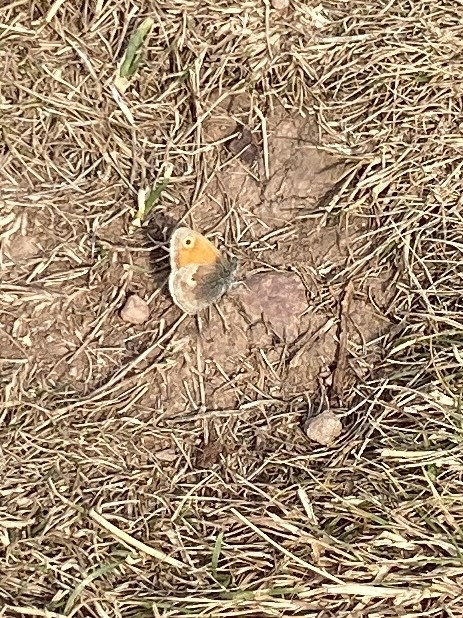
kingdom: Animalia
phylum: Arthropoda
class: Insecta
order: Lepidoptera
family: Nymphalidae
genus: Coenonympha
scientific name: Coenonympha pamphilus
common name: Small heath
